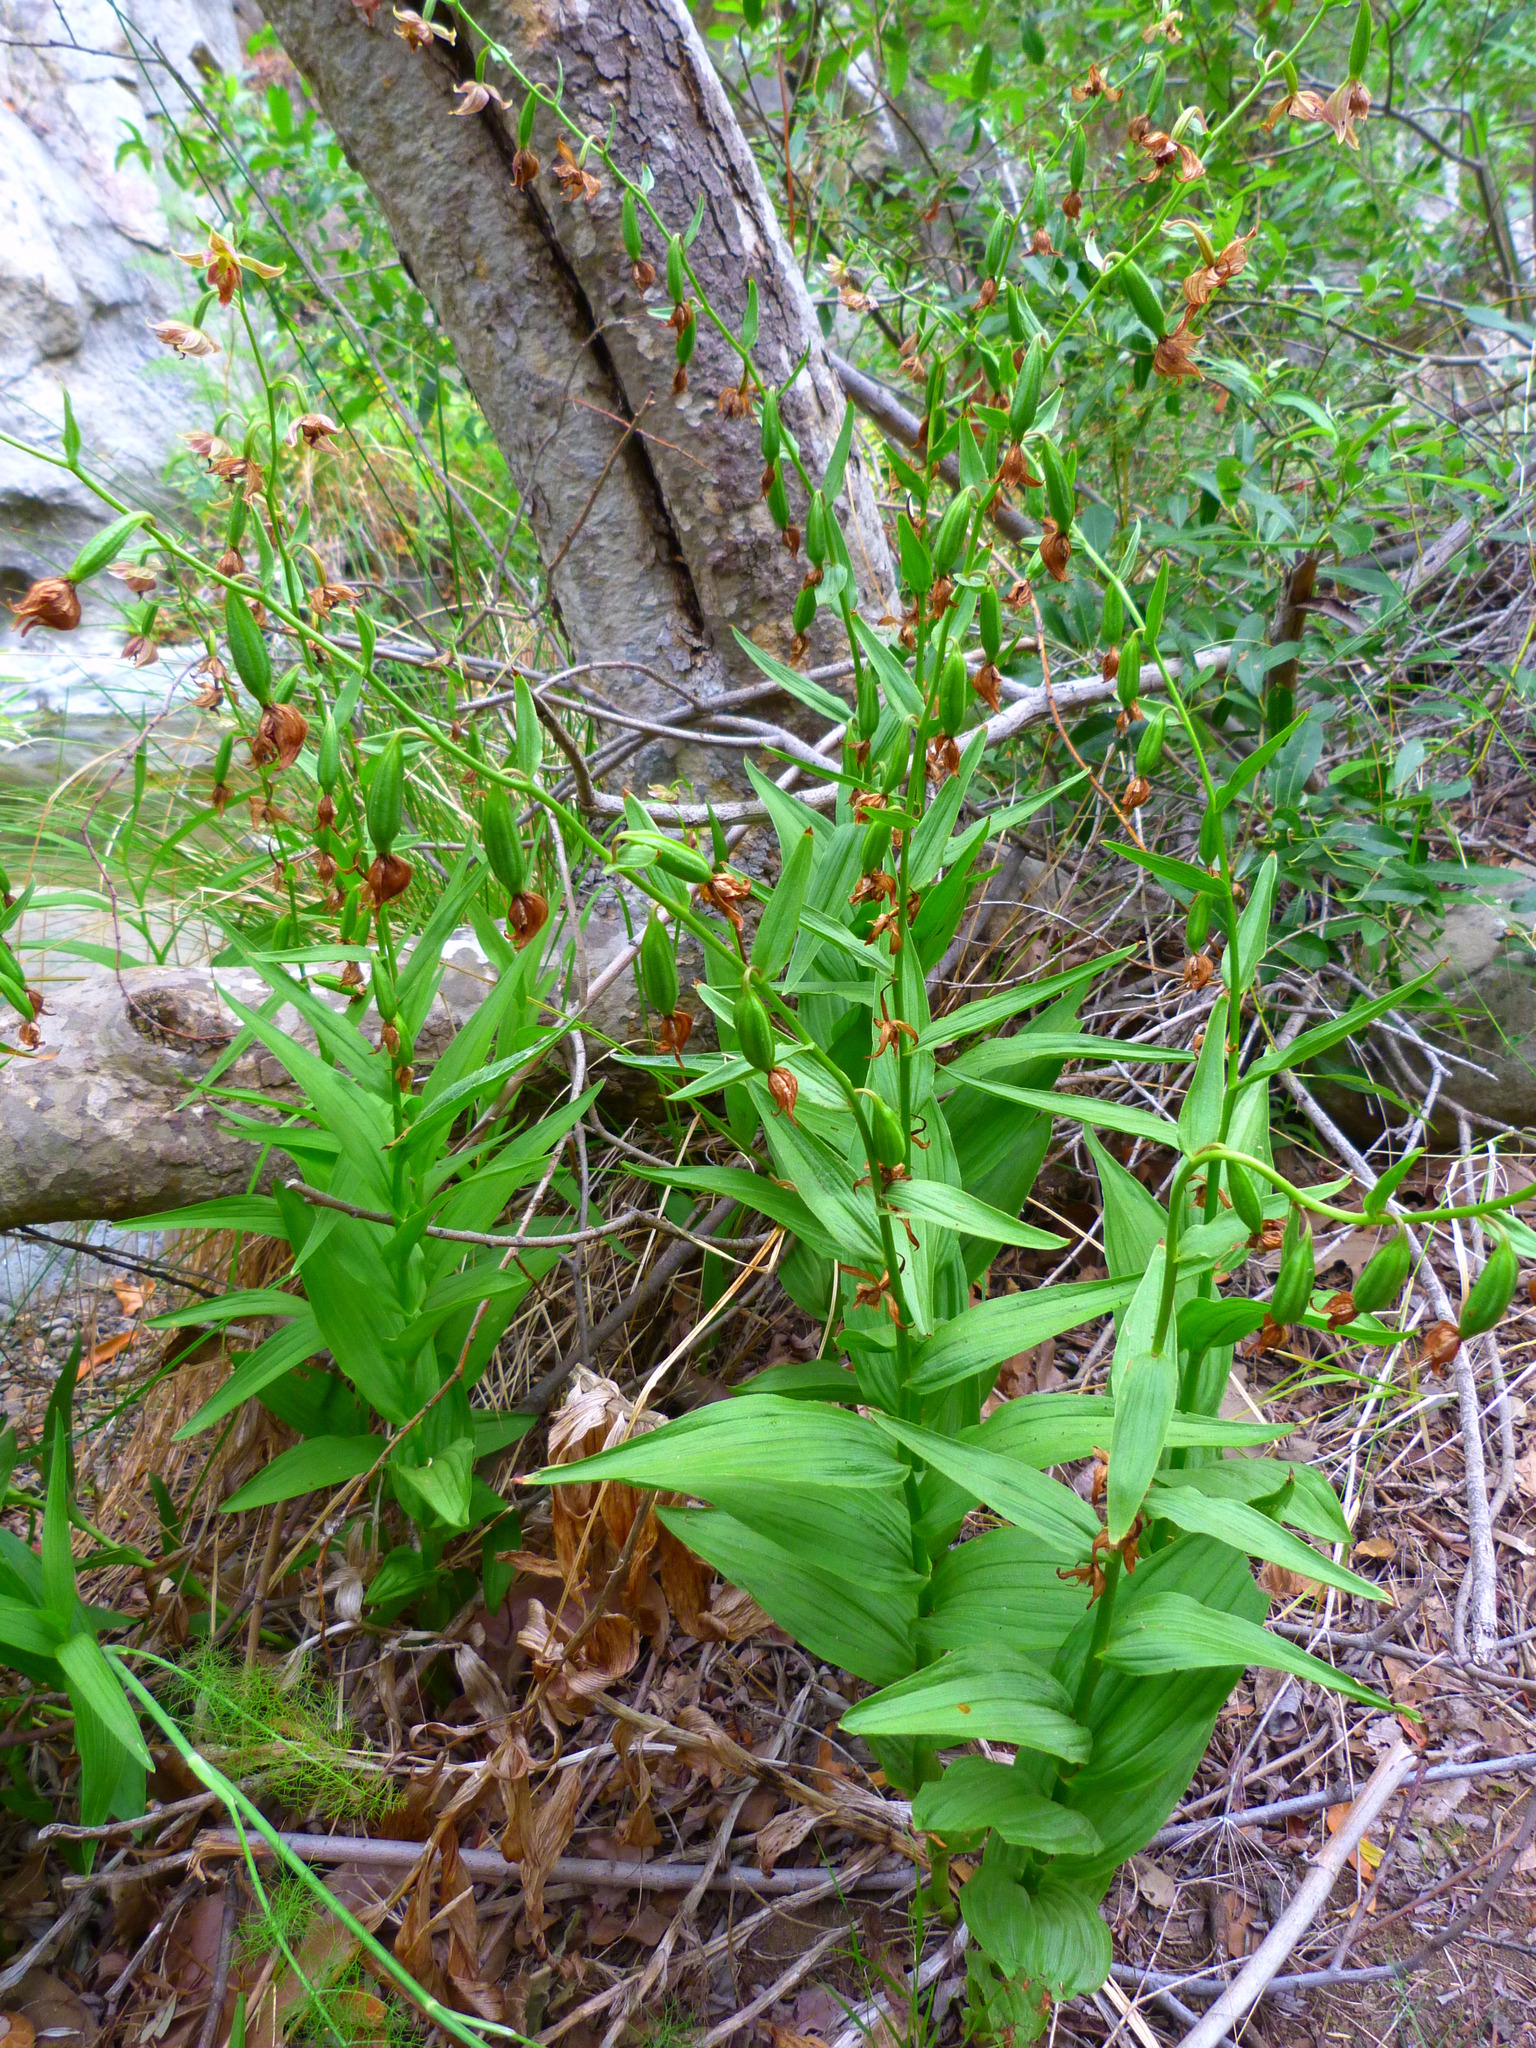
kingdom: Plantae
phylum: Tracheophyta
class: Liliopsida
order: Asparagales
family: Orchidaceae
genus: Epipactis
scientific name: Epipactis gigantea
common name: Chatterbox
